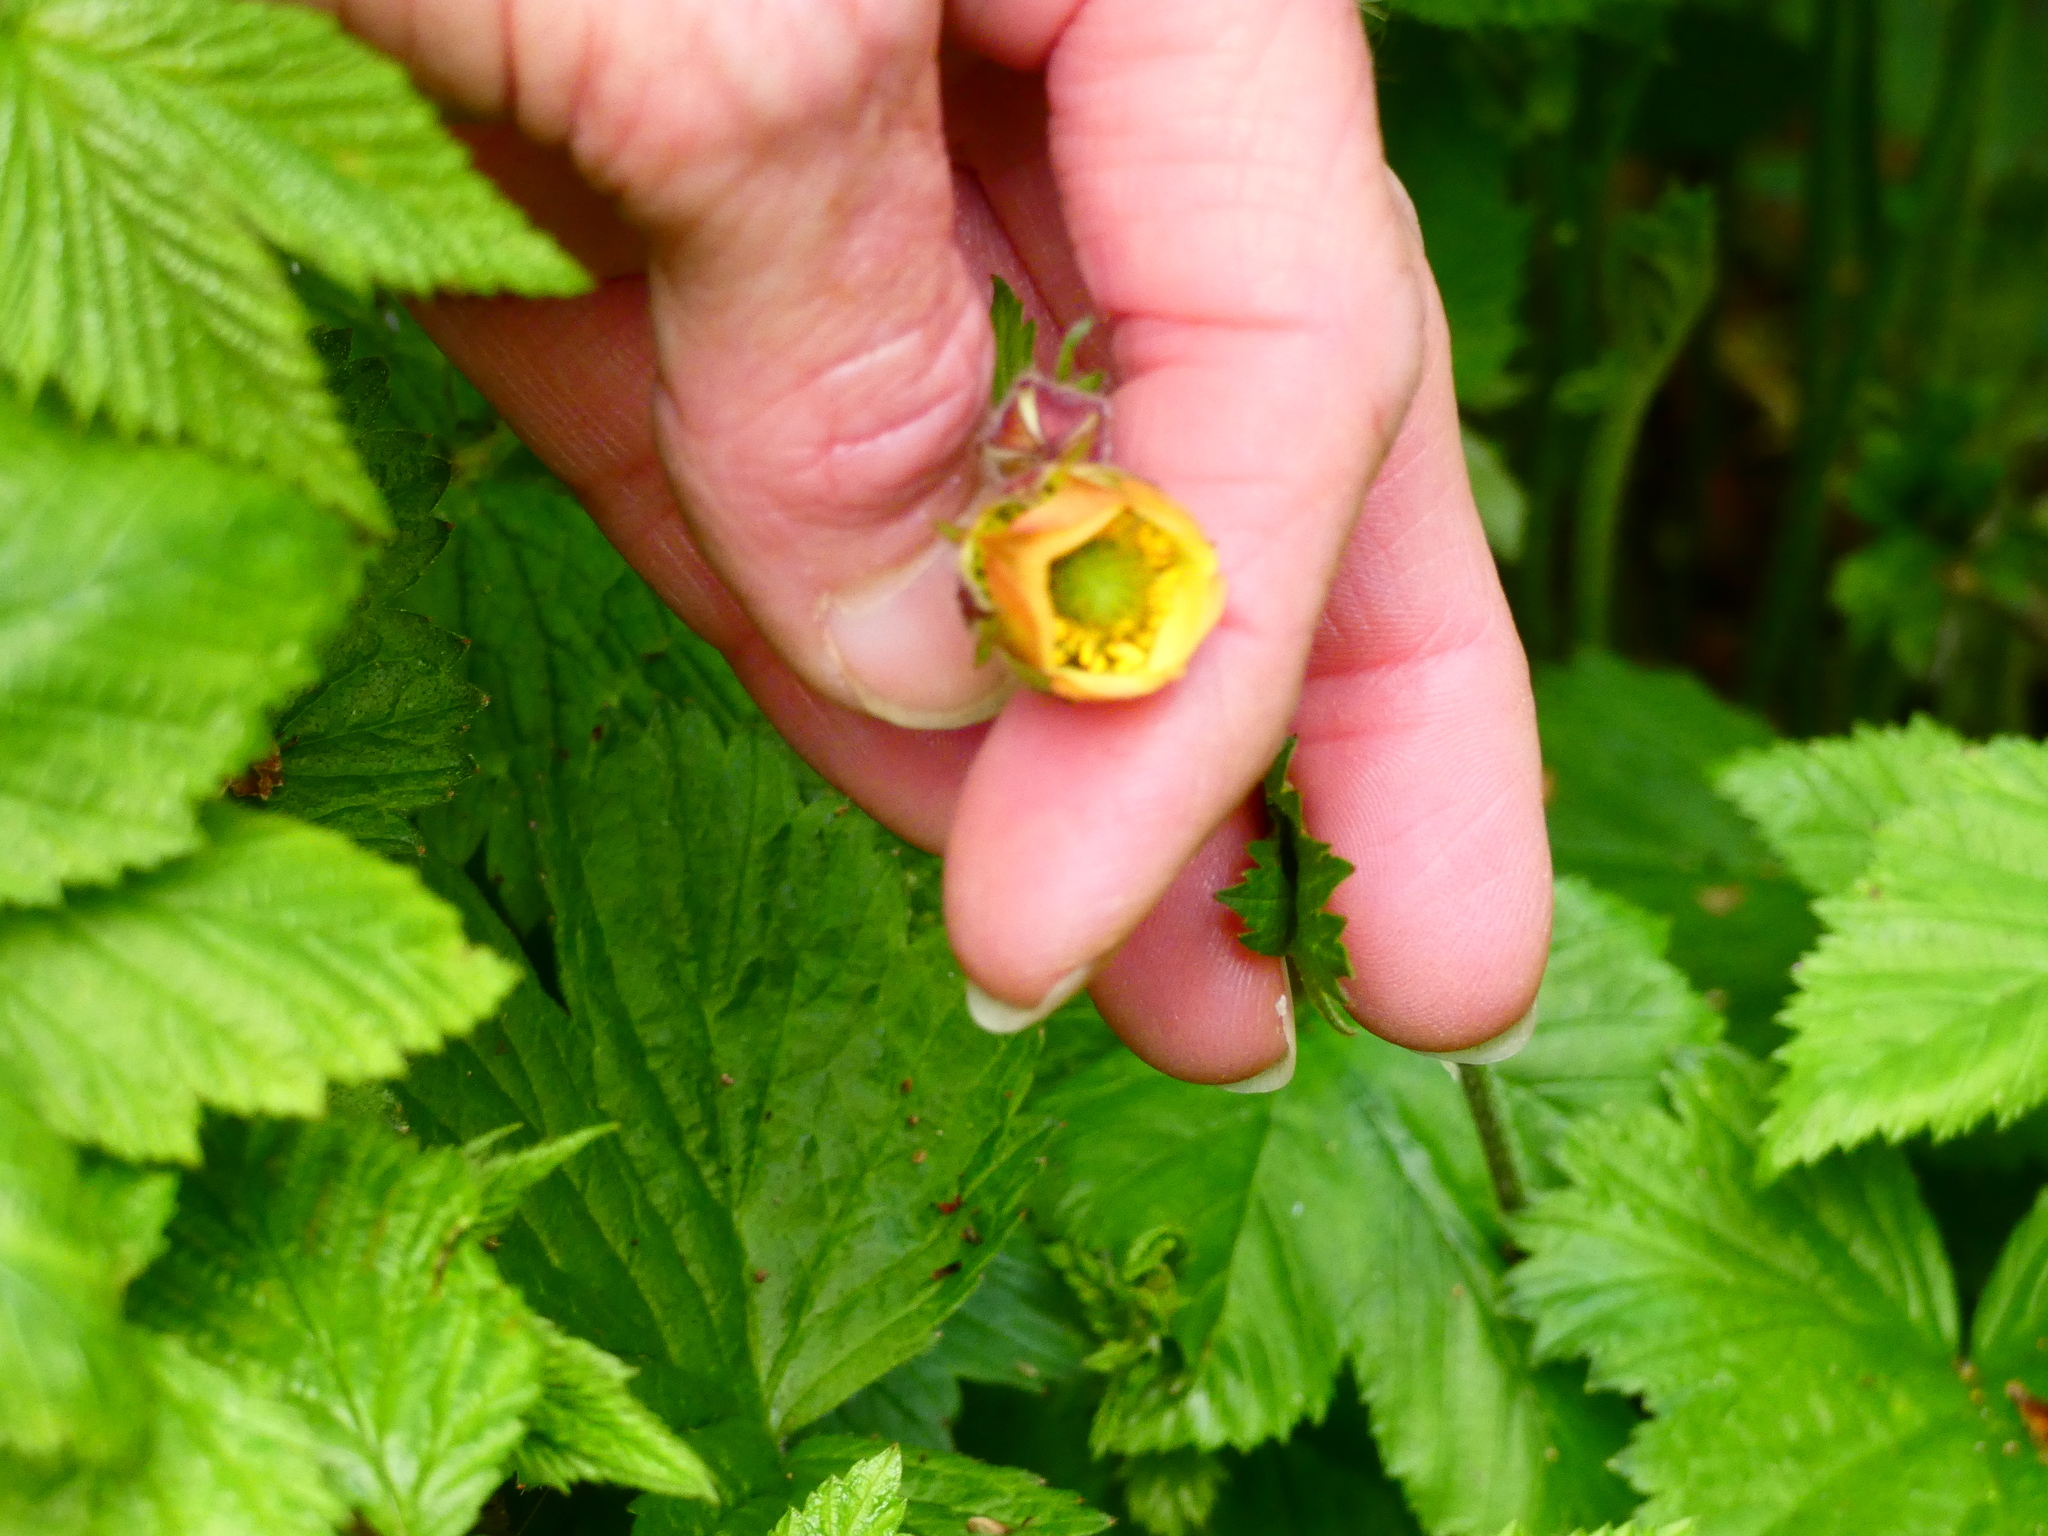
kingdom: Plantae
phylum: Tracheophyta
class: Magnoliopsida
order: Rosales
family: Rosaceae
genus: Geum
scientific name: Geum rivale
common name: Water avens
